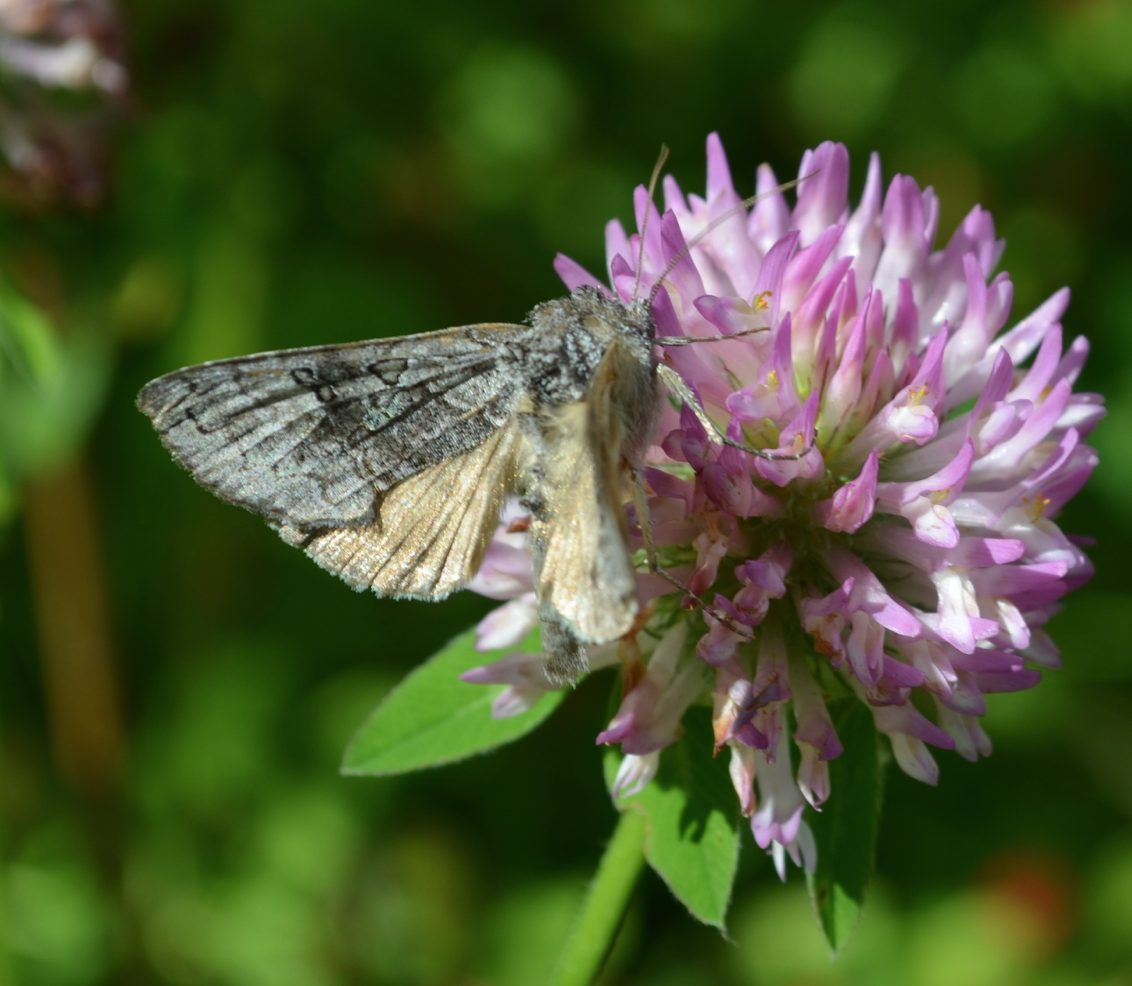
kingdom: Animalia
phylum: Arthropoda
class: Insecta
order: Lepidoptera
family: Noctuidae
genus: Syngrapha
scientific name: Syngrapha viridisigma
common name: Spruce false looper moth
